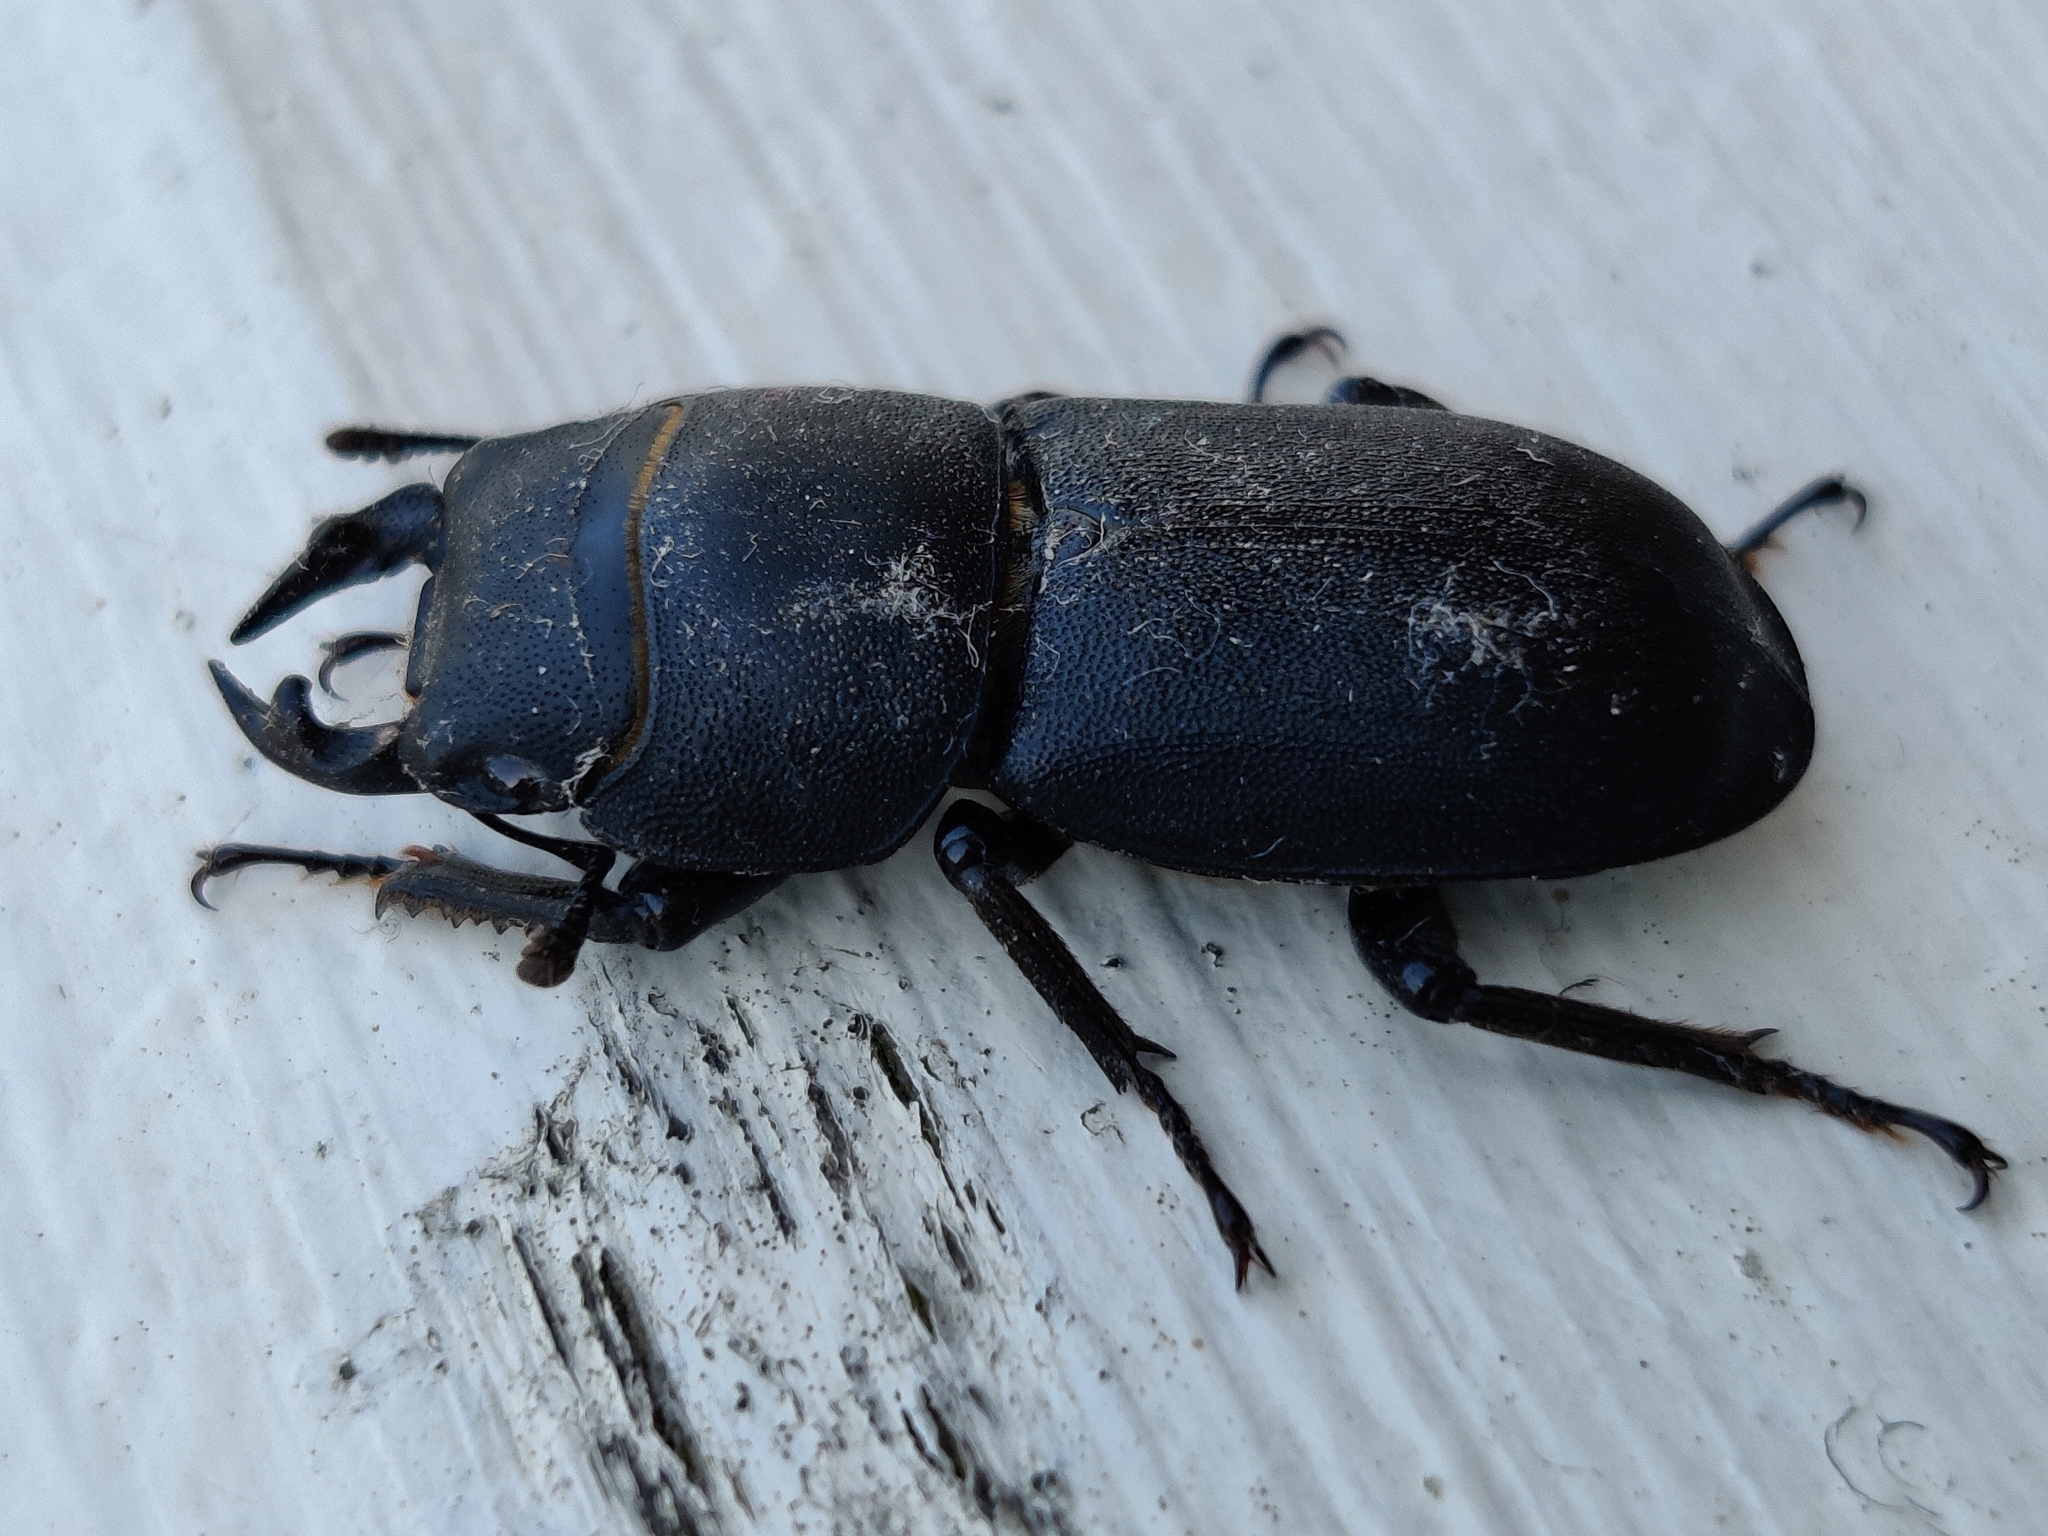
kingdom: Animalia
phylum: Arthropoda
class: Insecta
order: Coleoptera
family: Lucanidae
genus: Dorcus
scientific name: Dorcus parallelipipedus
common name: Lesser stag beetle
